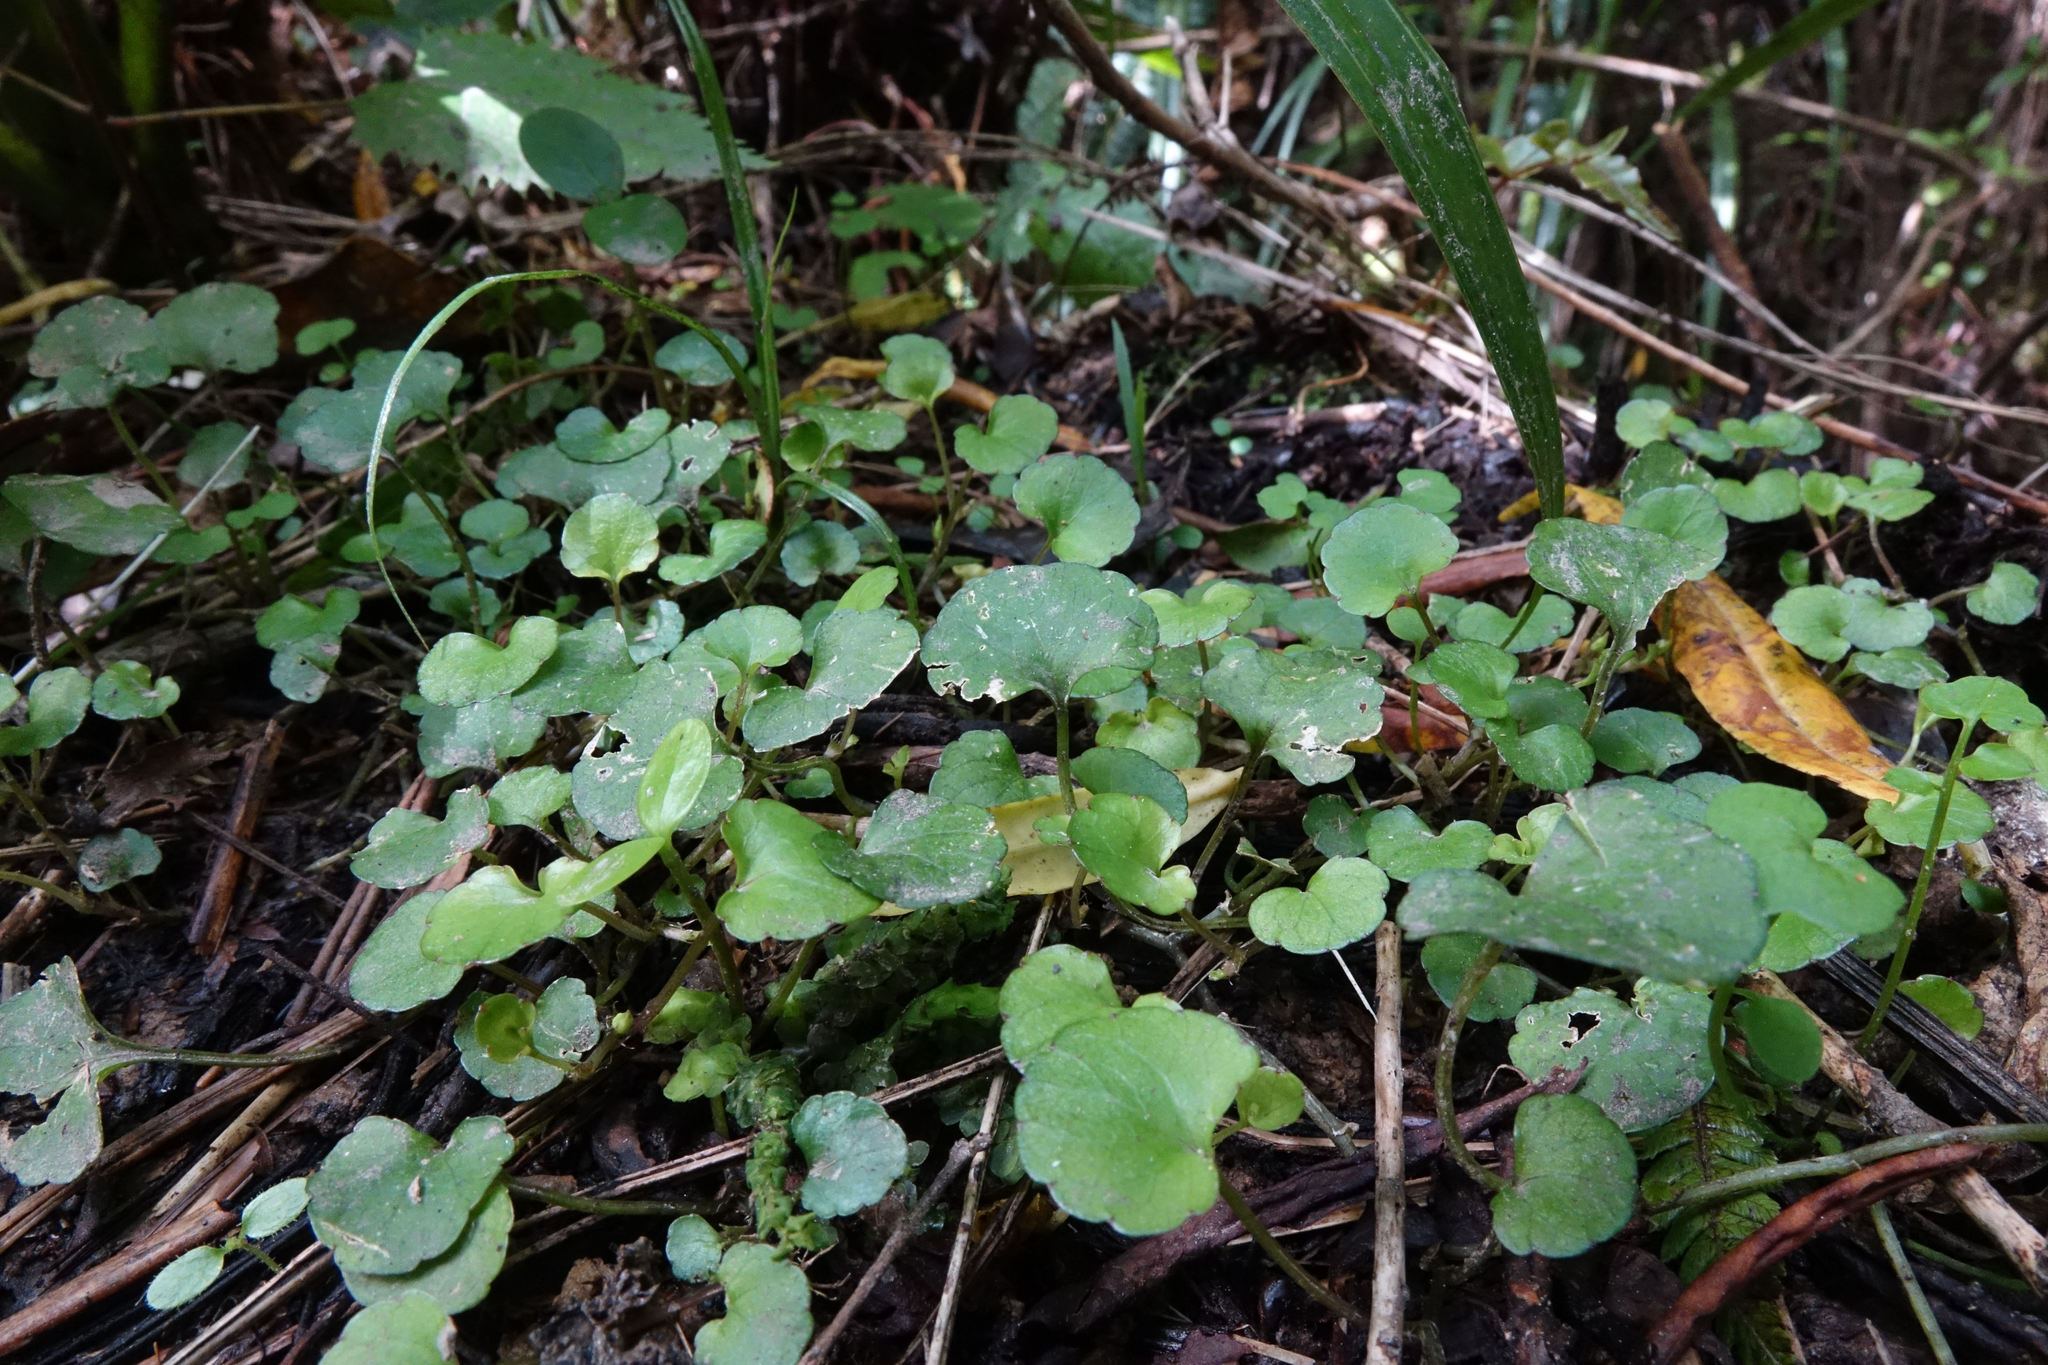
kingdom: Plantae
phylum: Tracheophyta
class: Magnoliopsida
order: Malpighiales
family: Violaceae
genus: Viola
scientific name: Viola filicaulis
